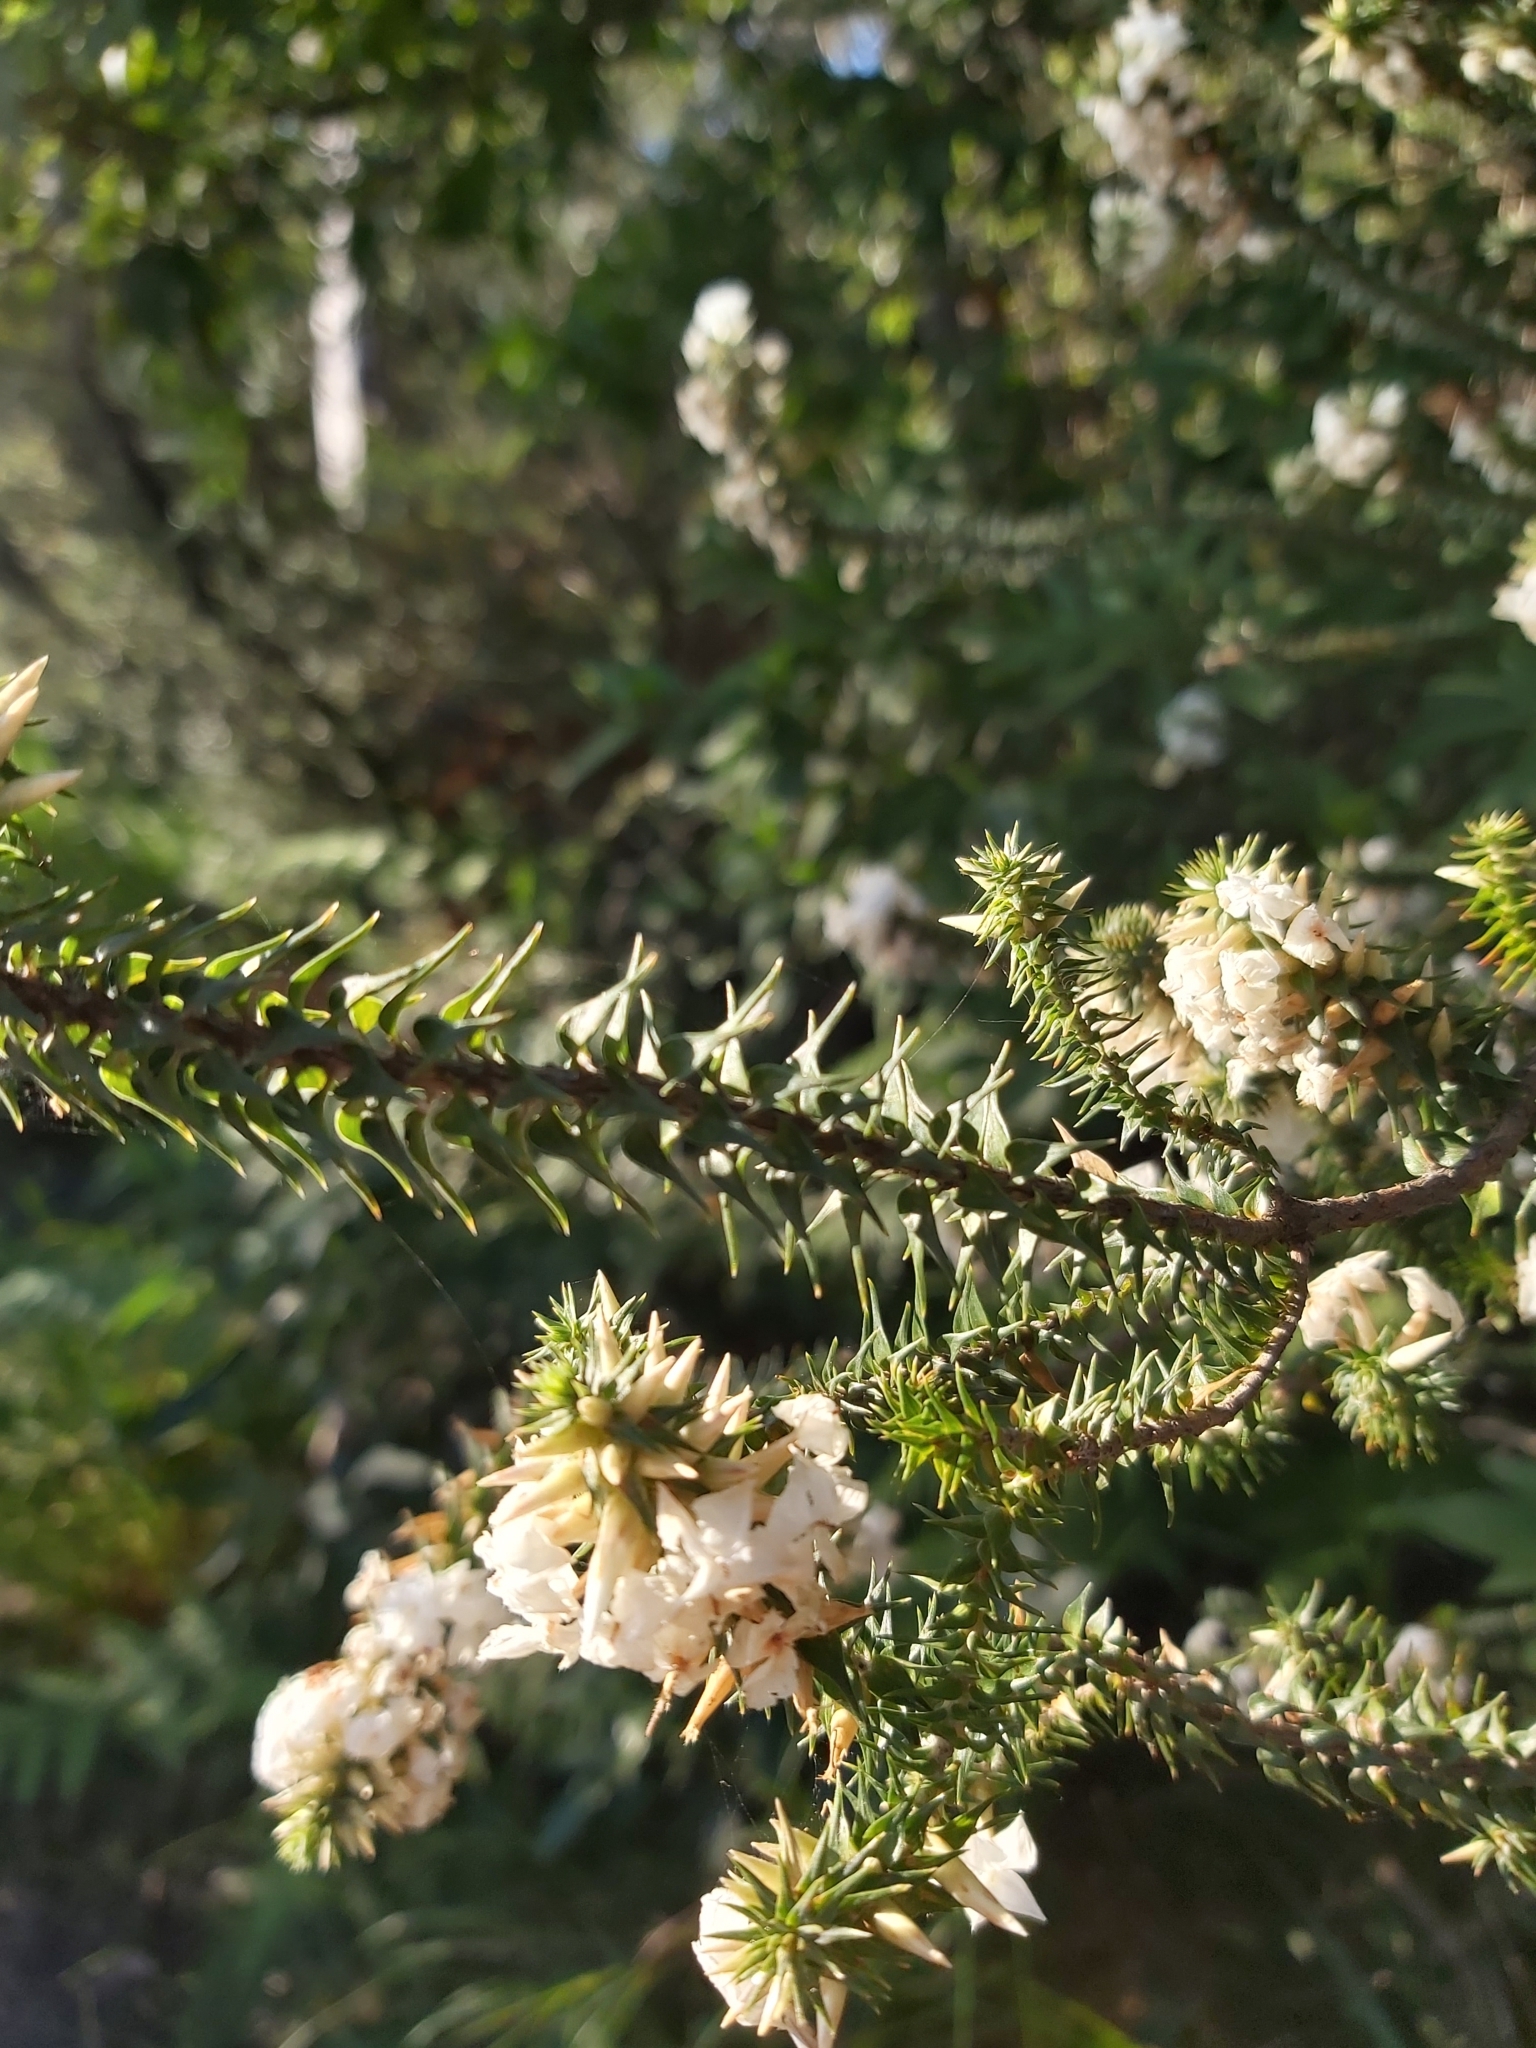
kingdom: Plantae
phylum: Tracheophyta
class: Magnoliopsida
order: Ericales
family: Ericaceae
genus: Woollsia
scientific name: Woollsia pungens
